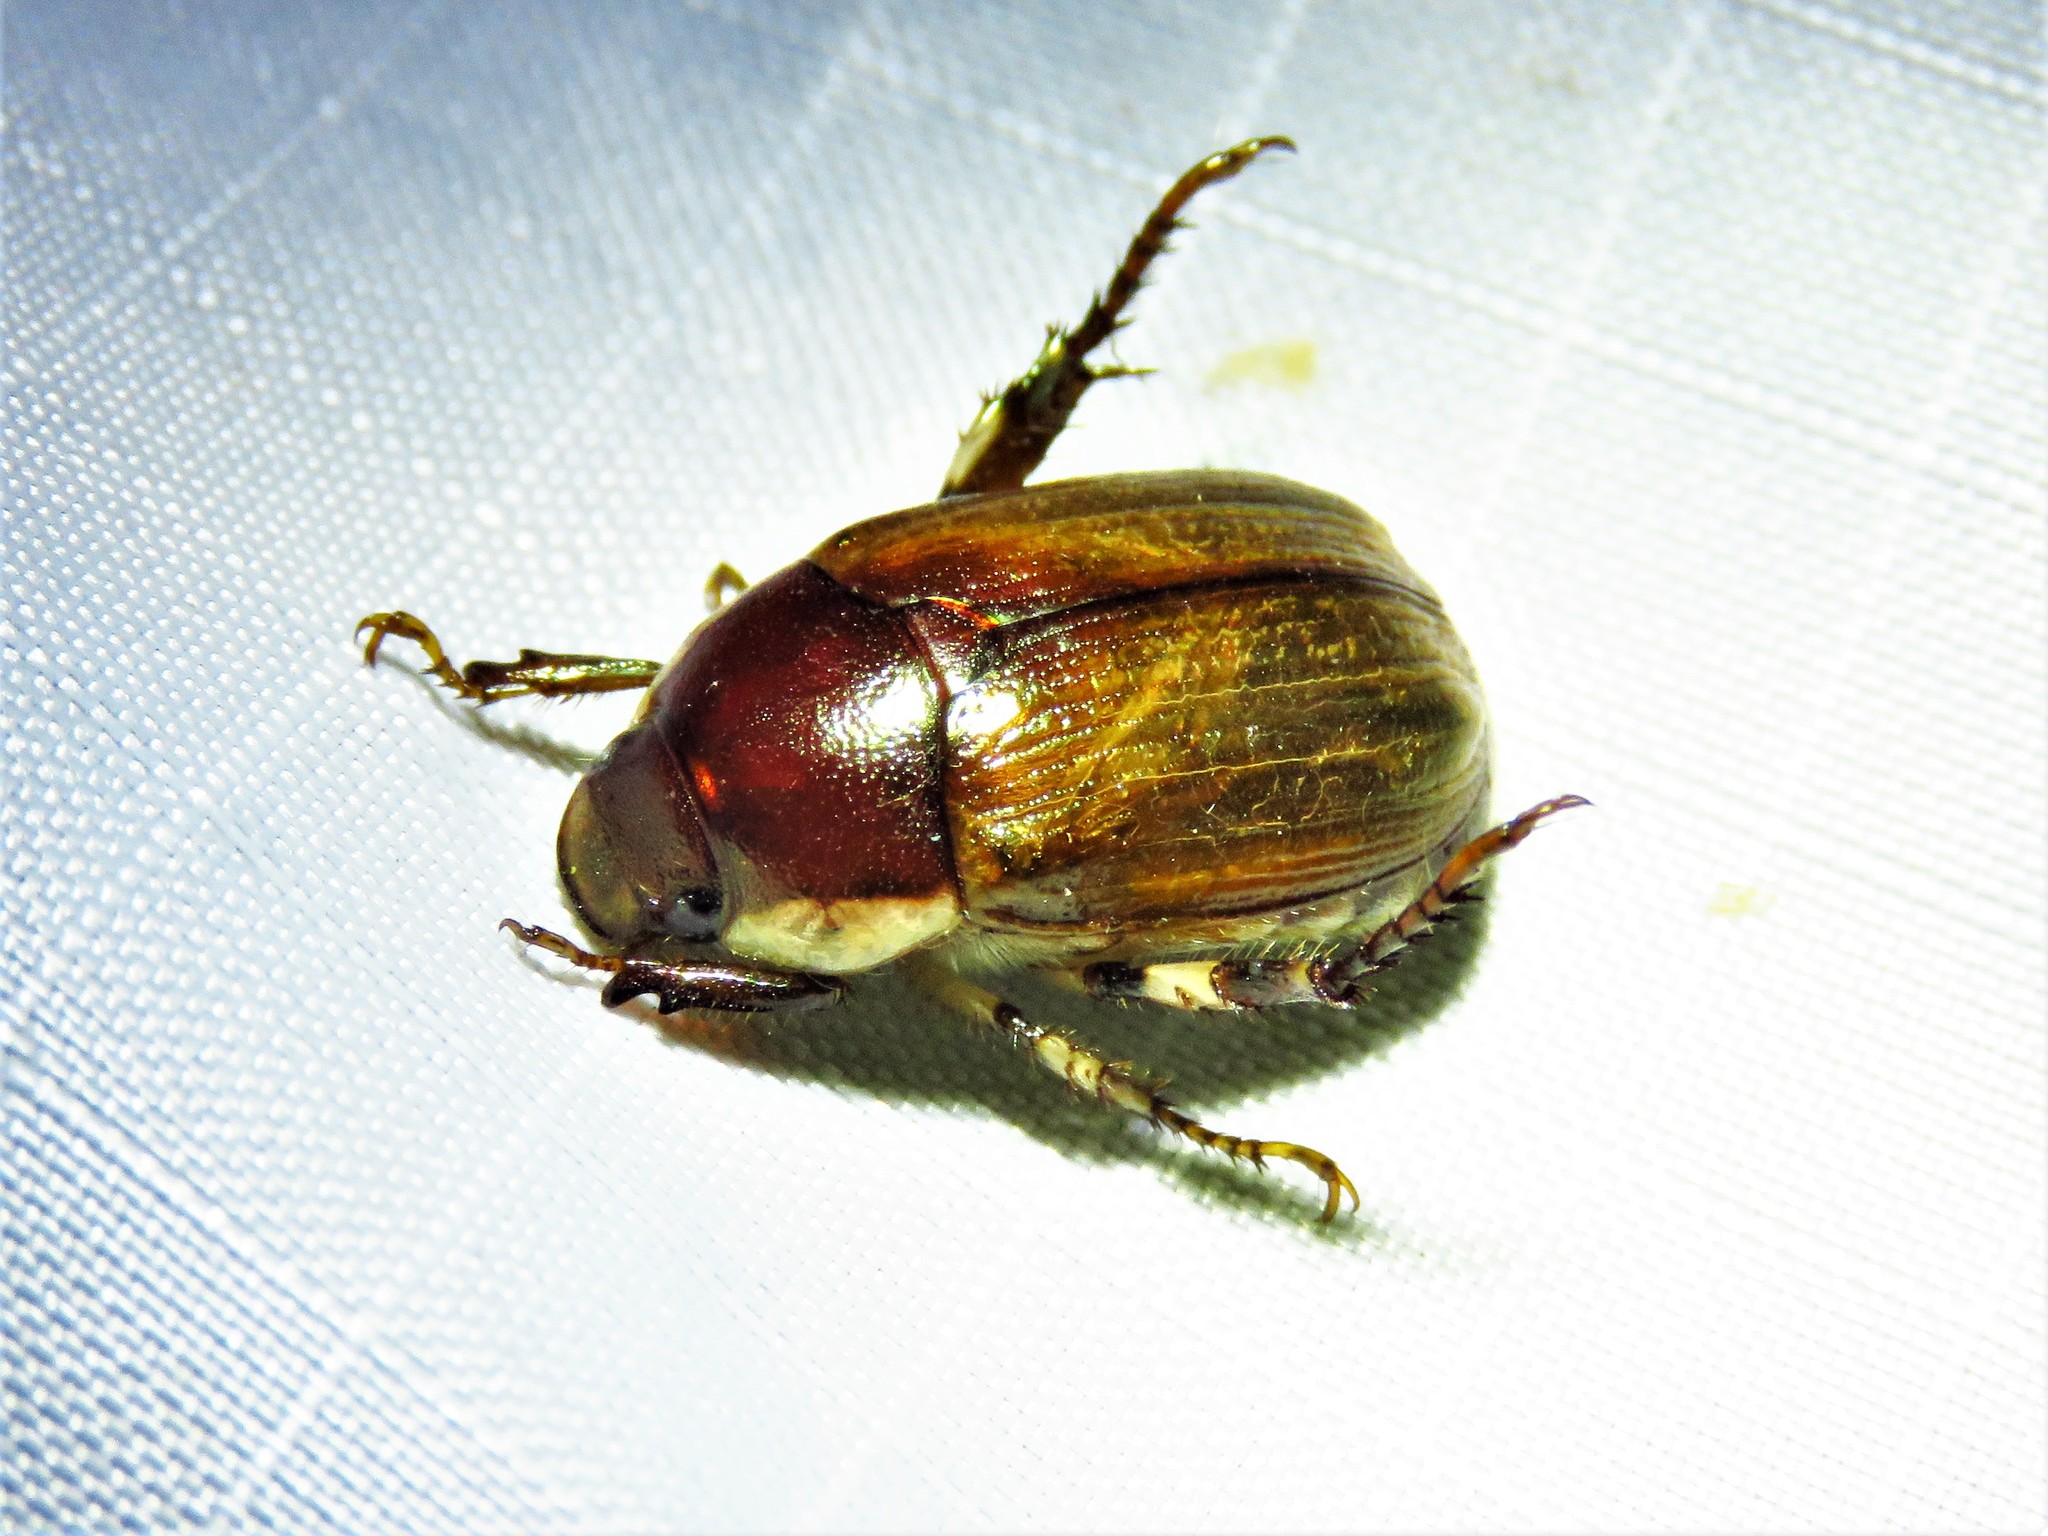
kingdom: Animalia
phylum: Arthropoda
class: Insecta
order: Coleoptera
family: Scarabaeidae
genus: Callistethus
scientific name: Callistethus marginatus
